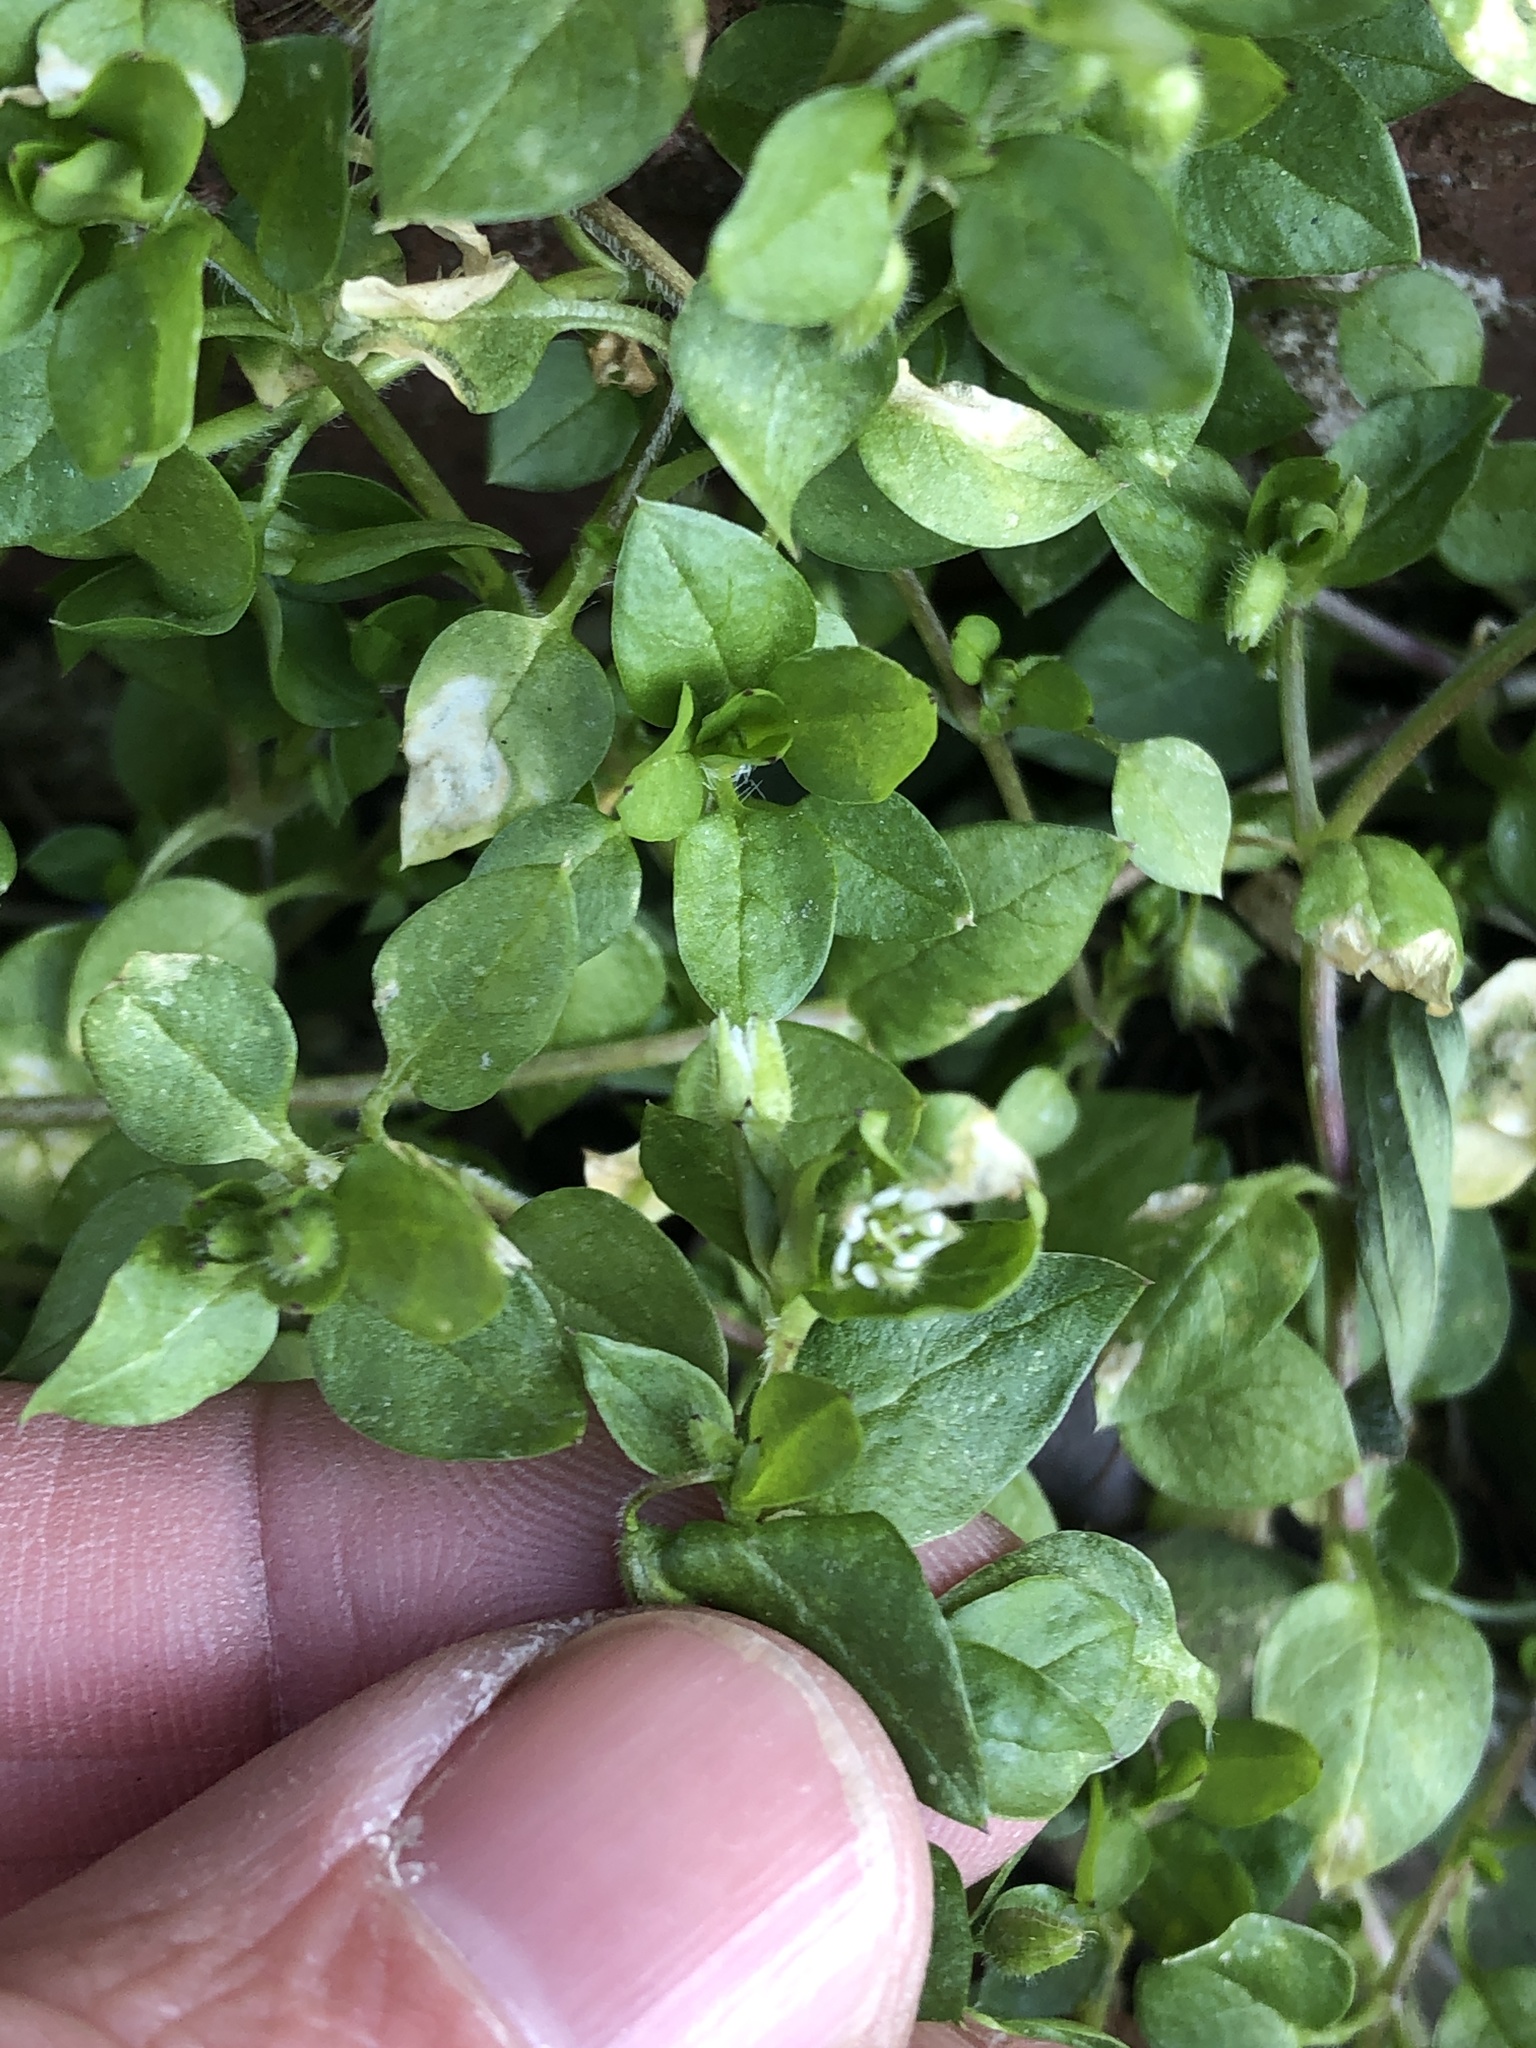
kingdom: Plantae
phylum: Tracheophyta
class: Magnoliopsida
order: Caryophyllales
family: Caryophyllaceae
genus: Stellaria
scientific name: Stellaria media
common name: Common chickweed
